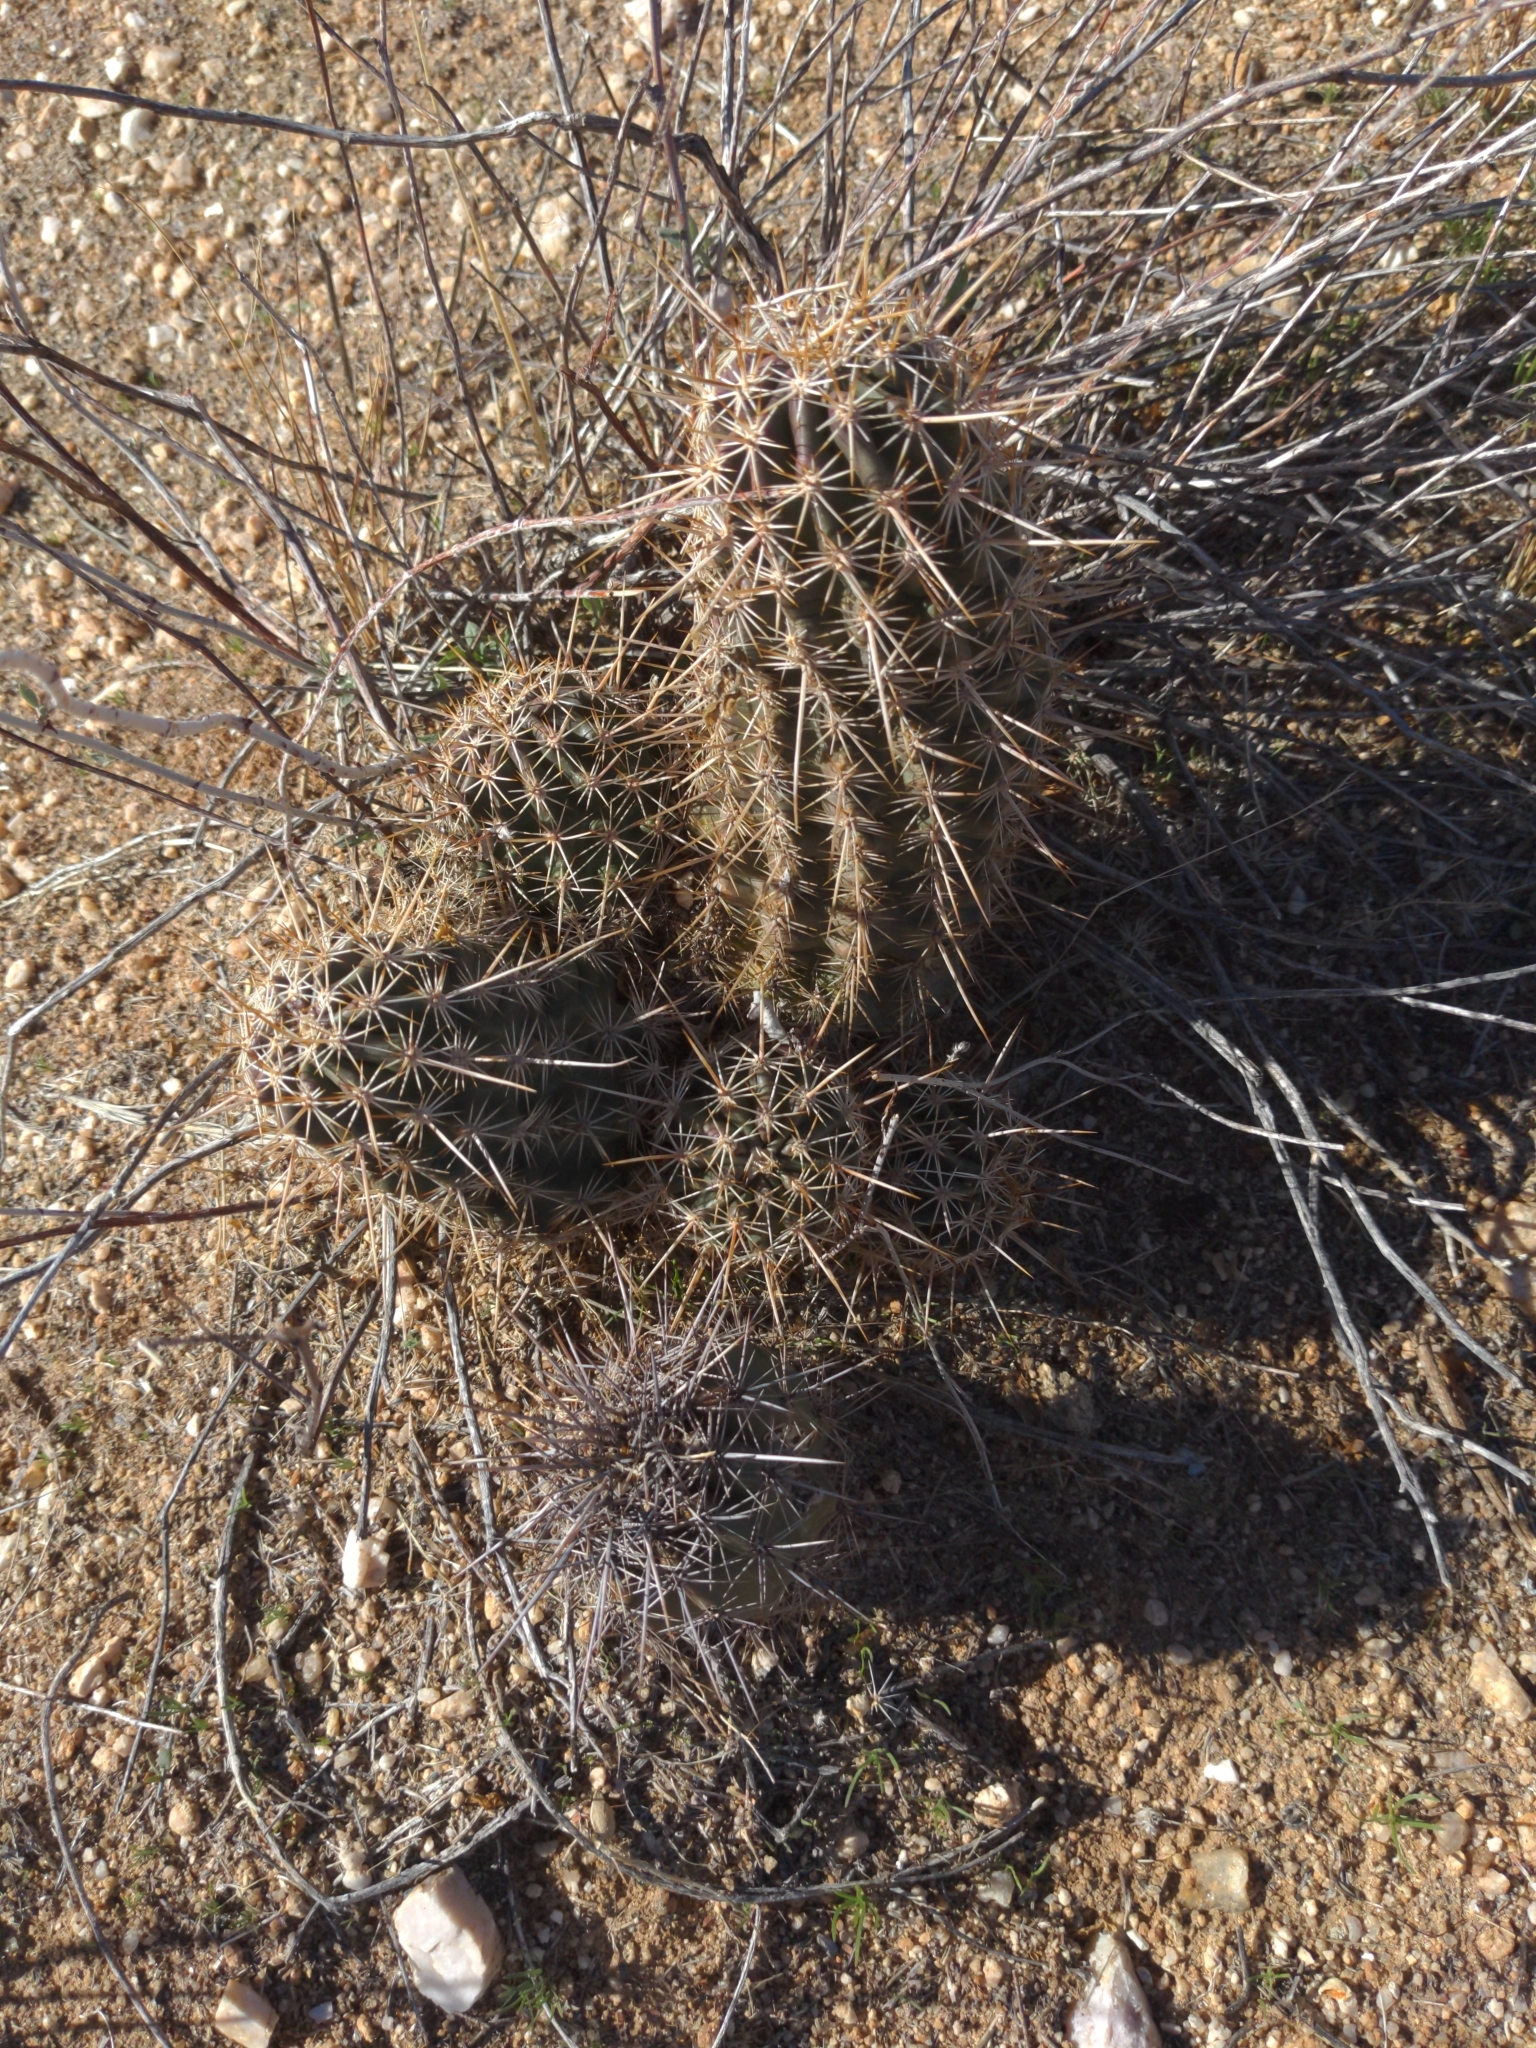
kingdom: Plantae
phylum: Tracheophyta
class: Magnoliopsida
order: Caryophyllales
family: Cactaceae
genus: Echinocereus
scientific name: Echinocereus fasciculatus
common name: Bundle hedgehog
